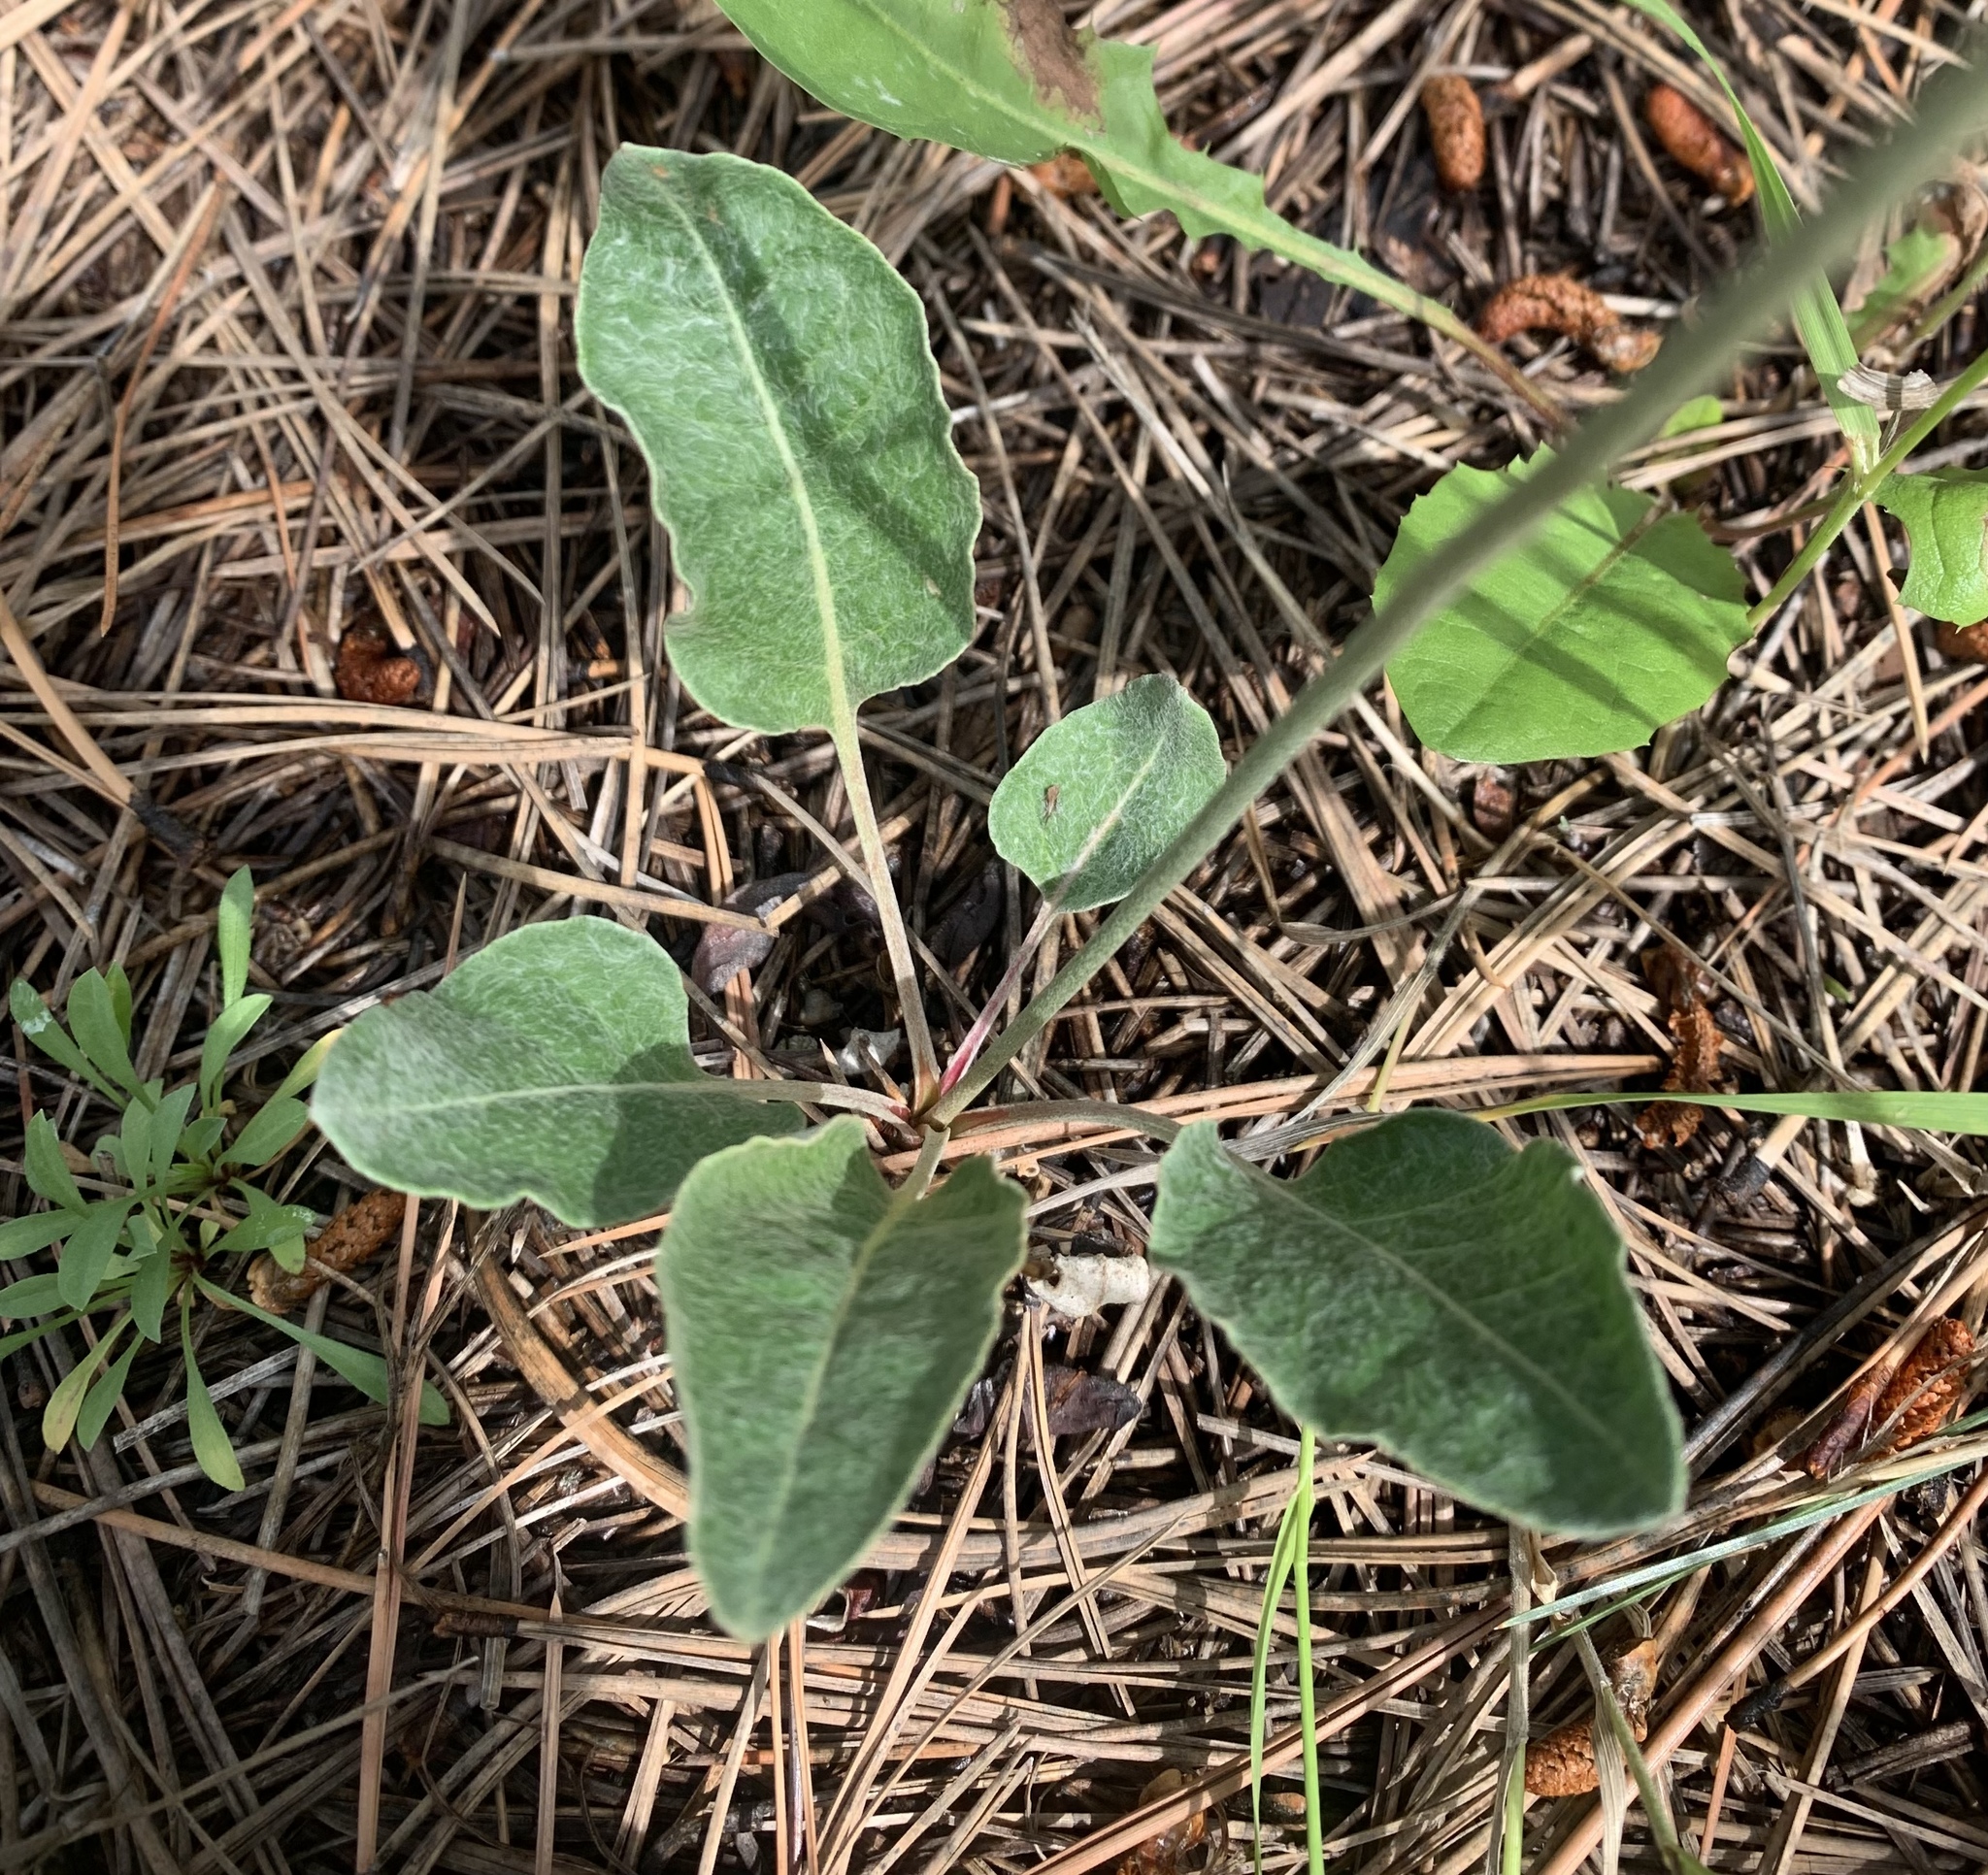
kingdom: Plantae
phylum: Tracheophyta
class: Magnoliopsida
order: Caryophyllales
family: Polygonaceae
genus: Eriogonum
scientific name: Eriogonum racemosum
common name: Redroot wild buckwheat
